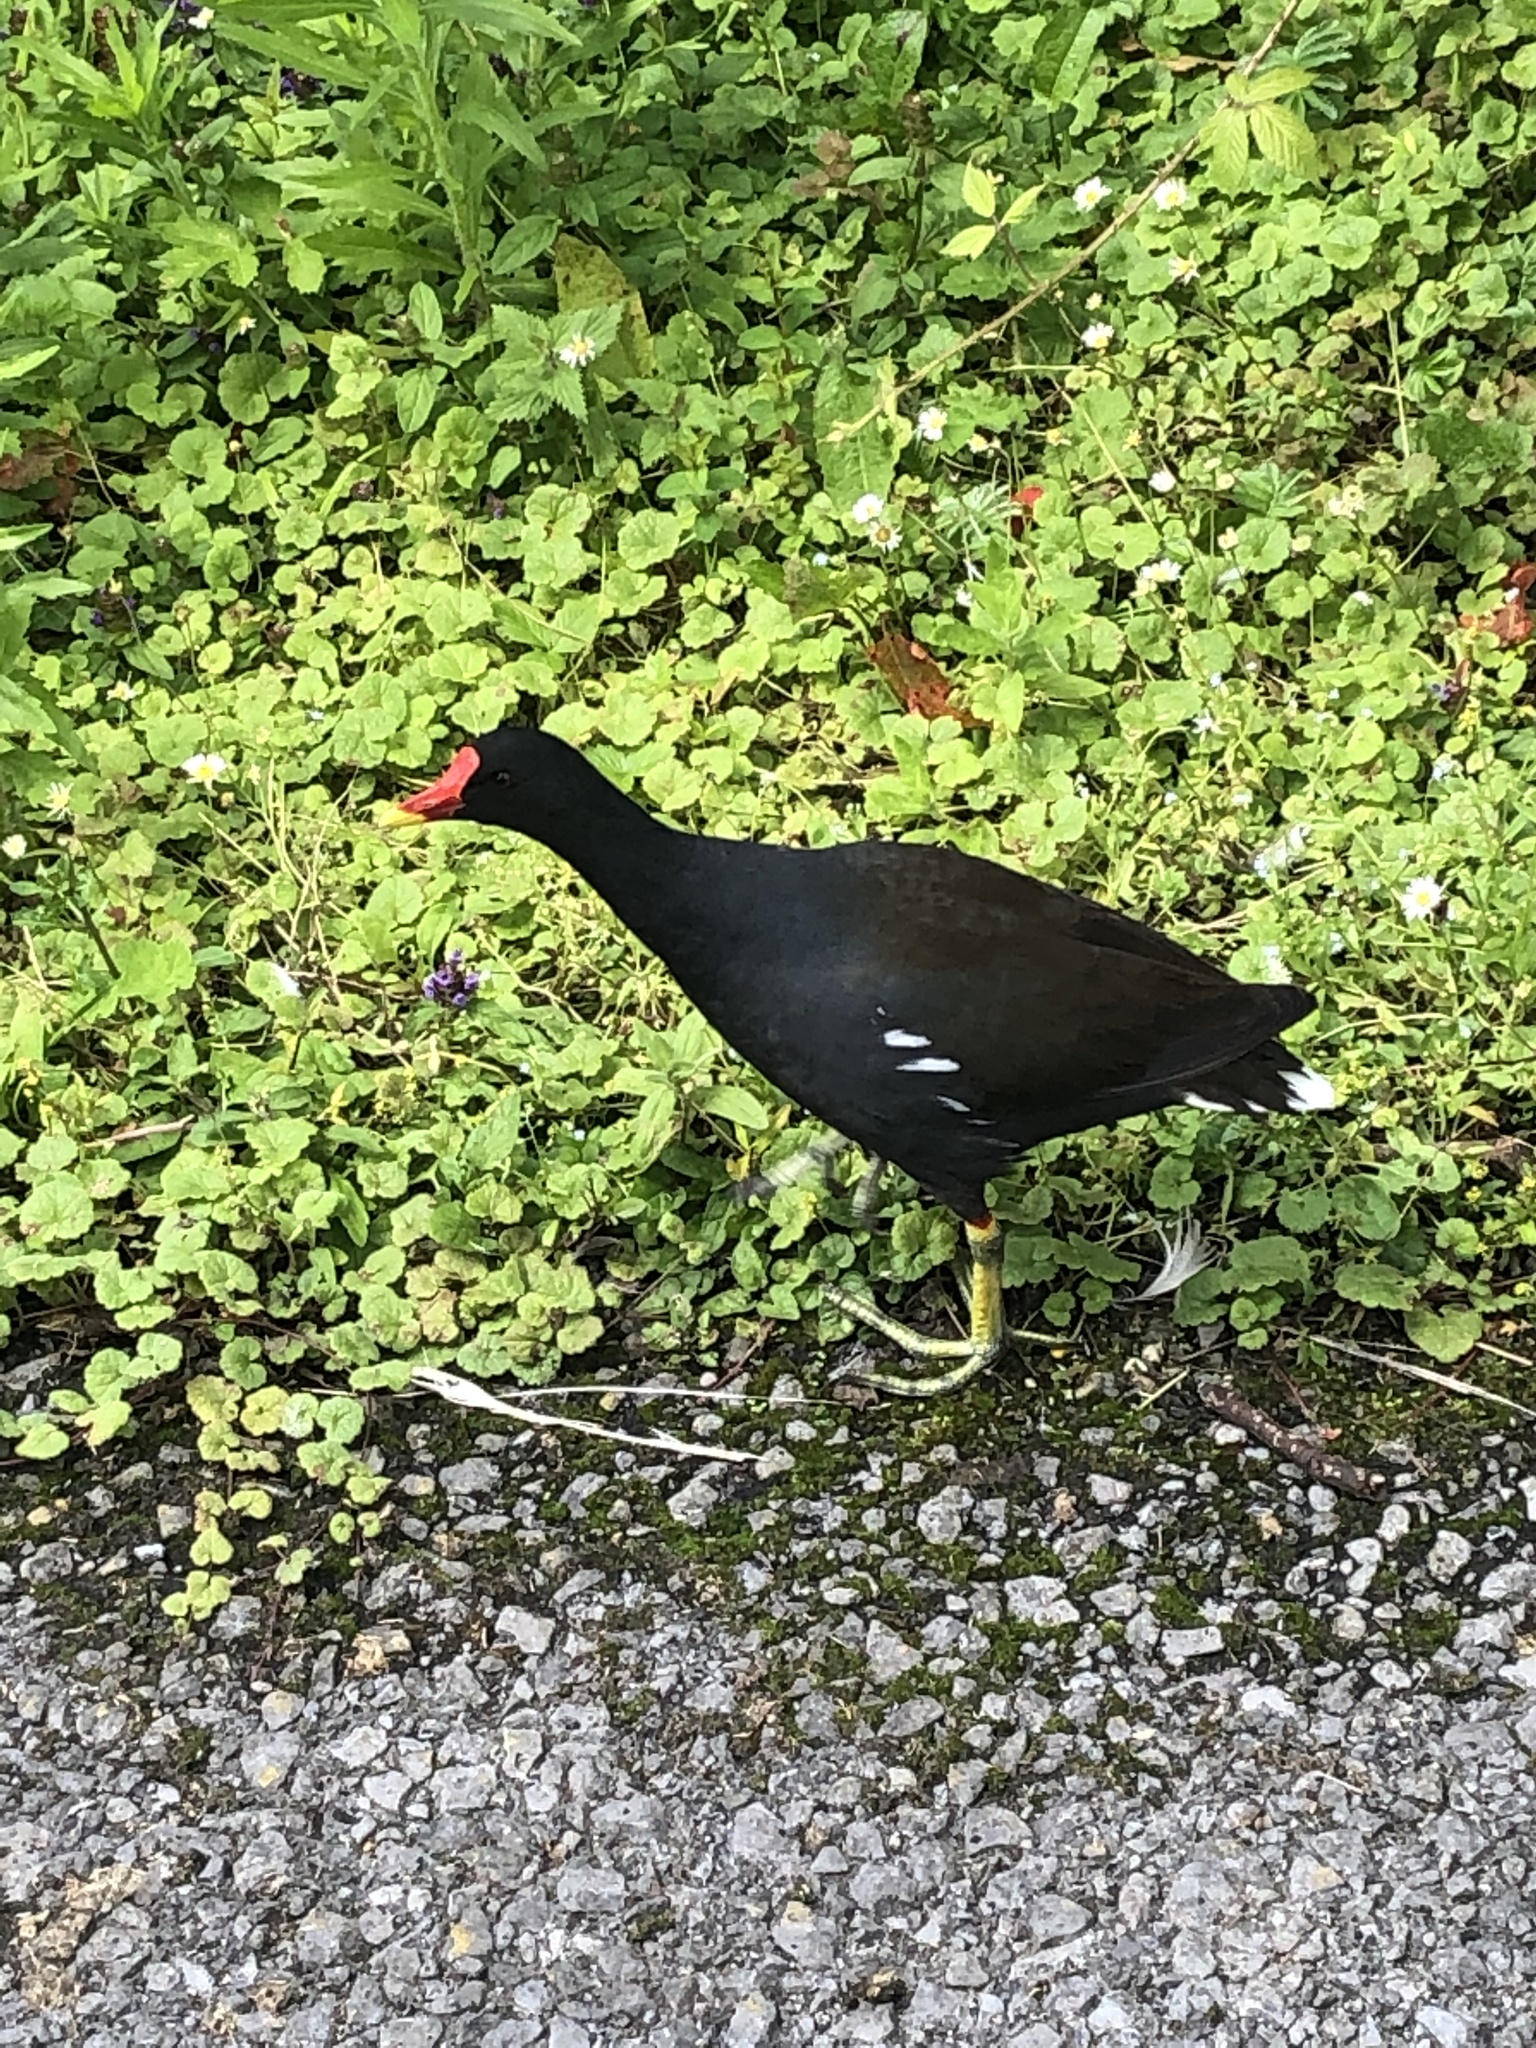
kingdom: Animalia
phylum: Chordata
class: Aves
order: Gruiformes
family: Rallidae
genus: Gallinula
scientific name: Gallinula chloropus
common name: Common moorhen
